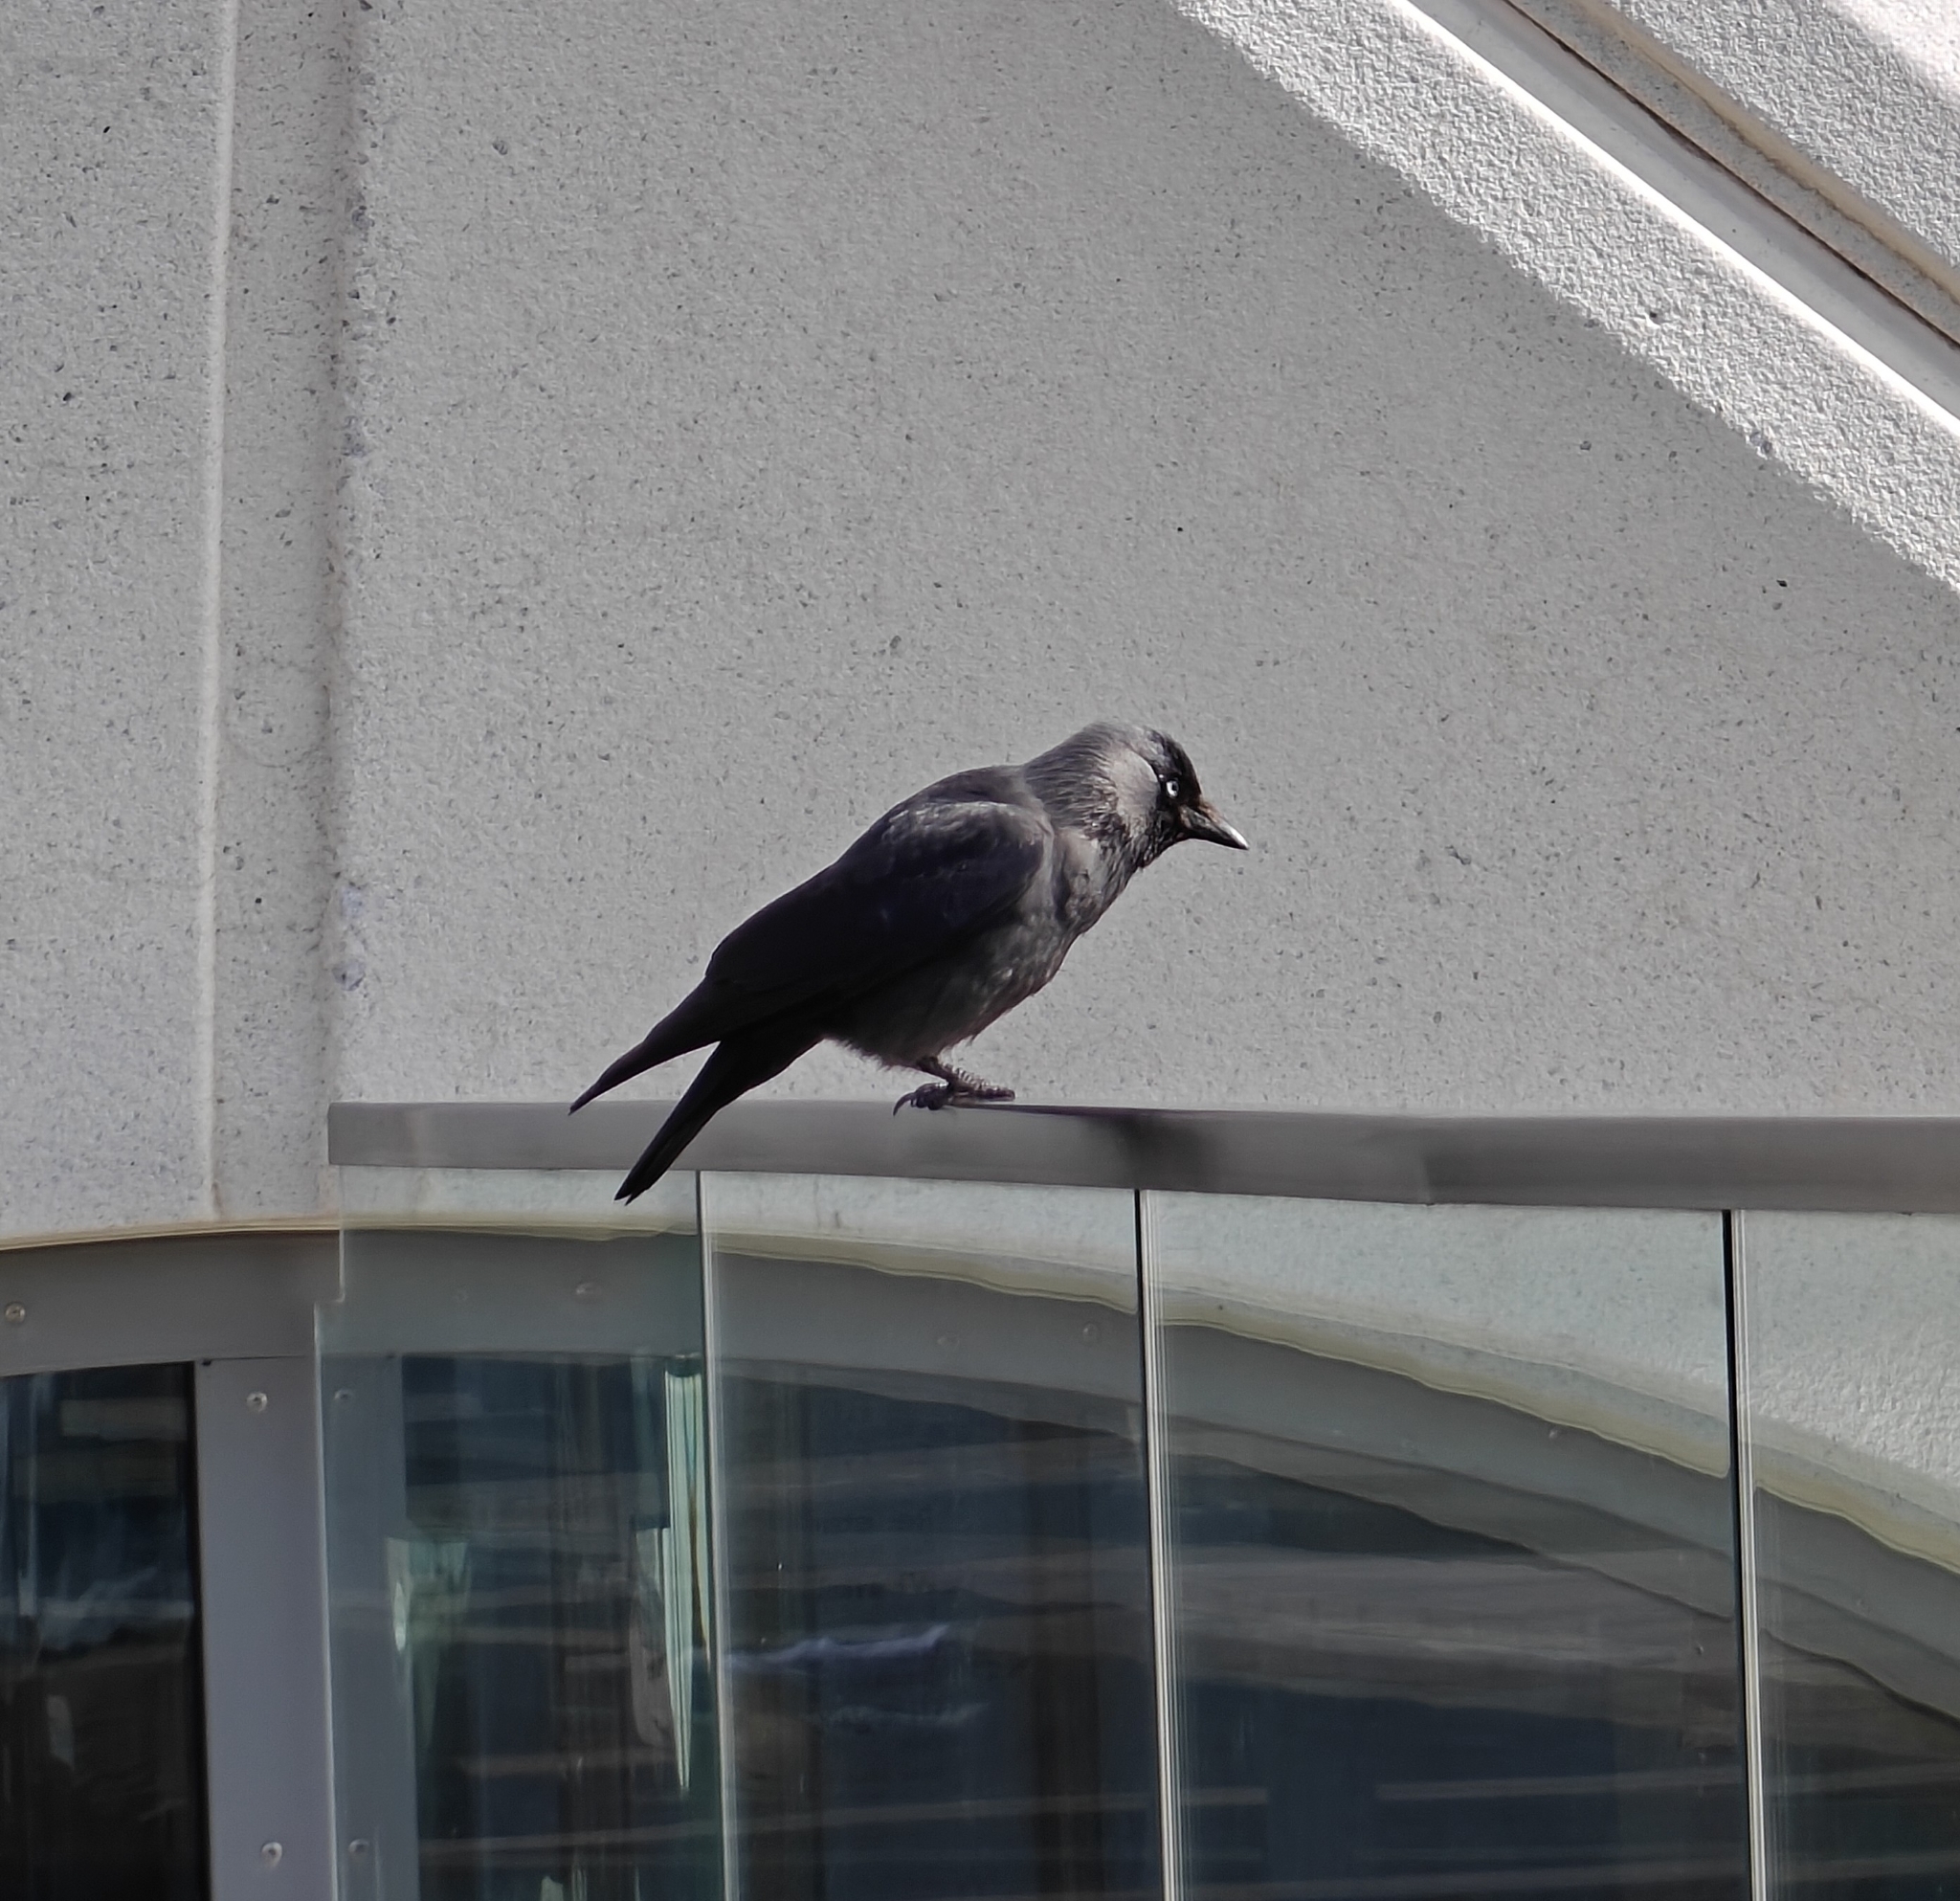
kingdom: Animalia
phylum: Chordata
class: Aves
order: Passeriformes
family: Corvidae
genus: Coloeus
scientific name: Coloeus monedula
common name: Western jackdaw
